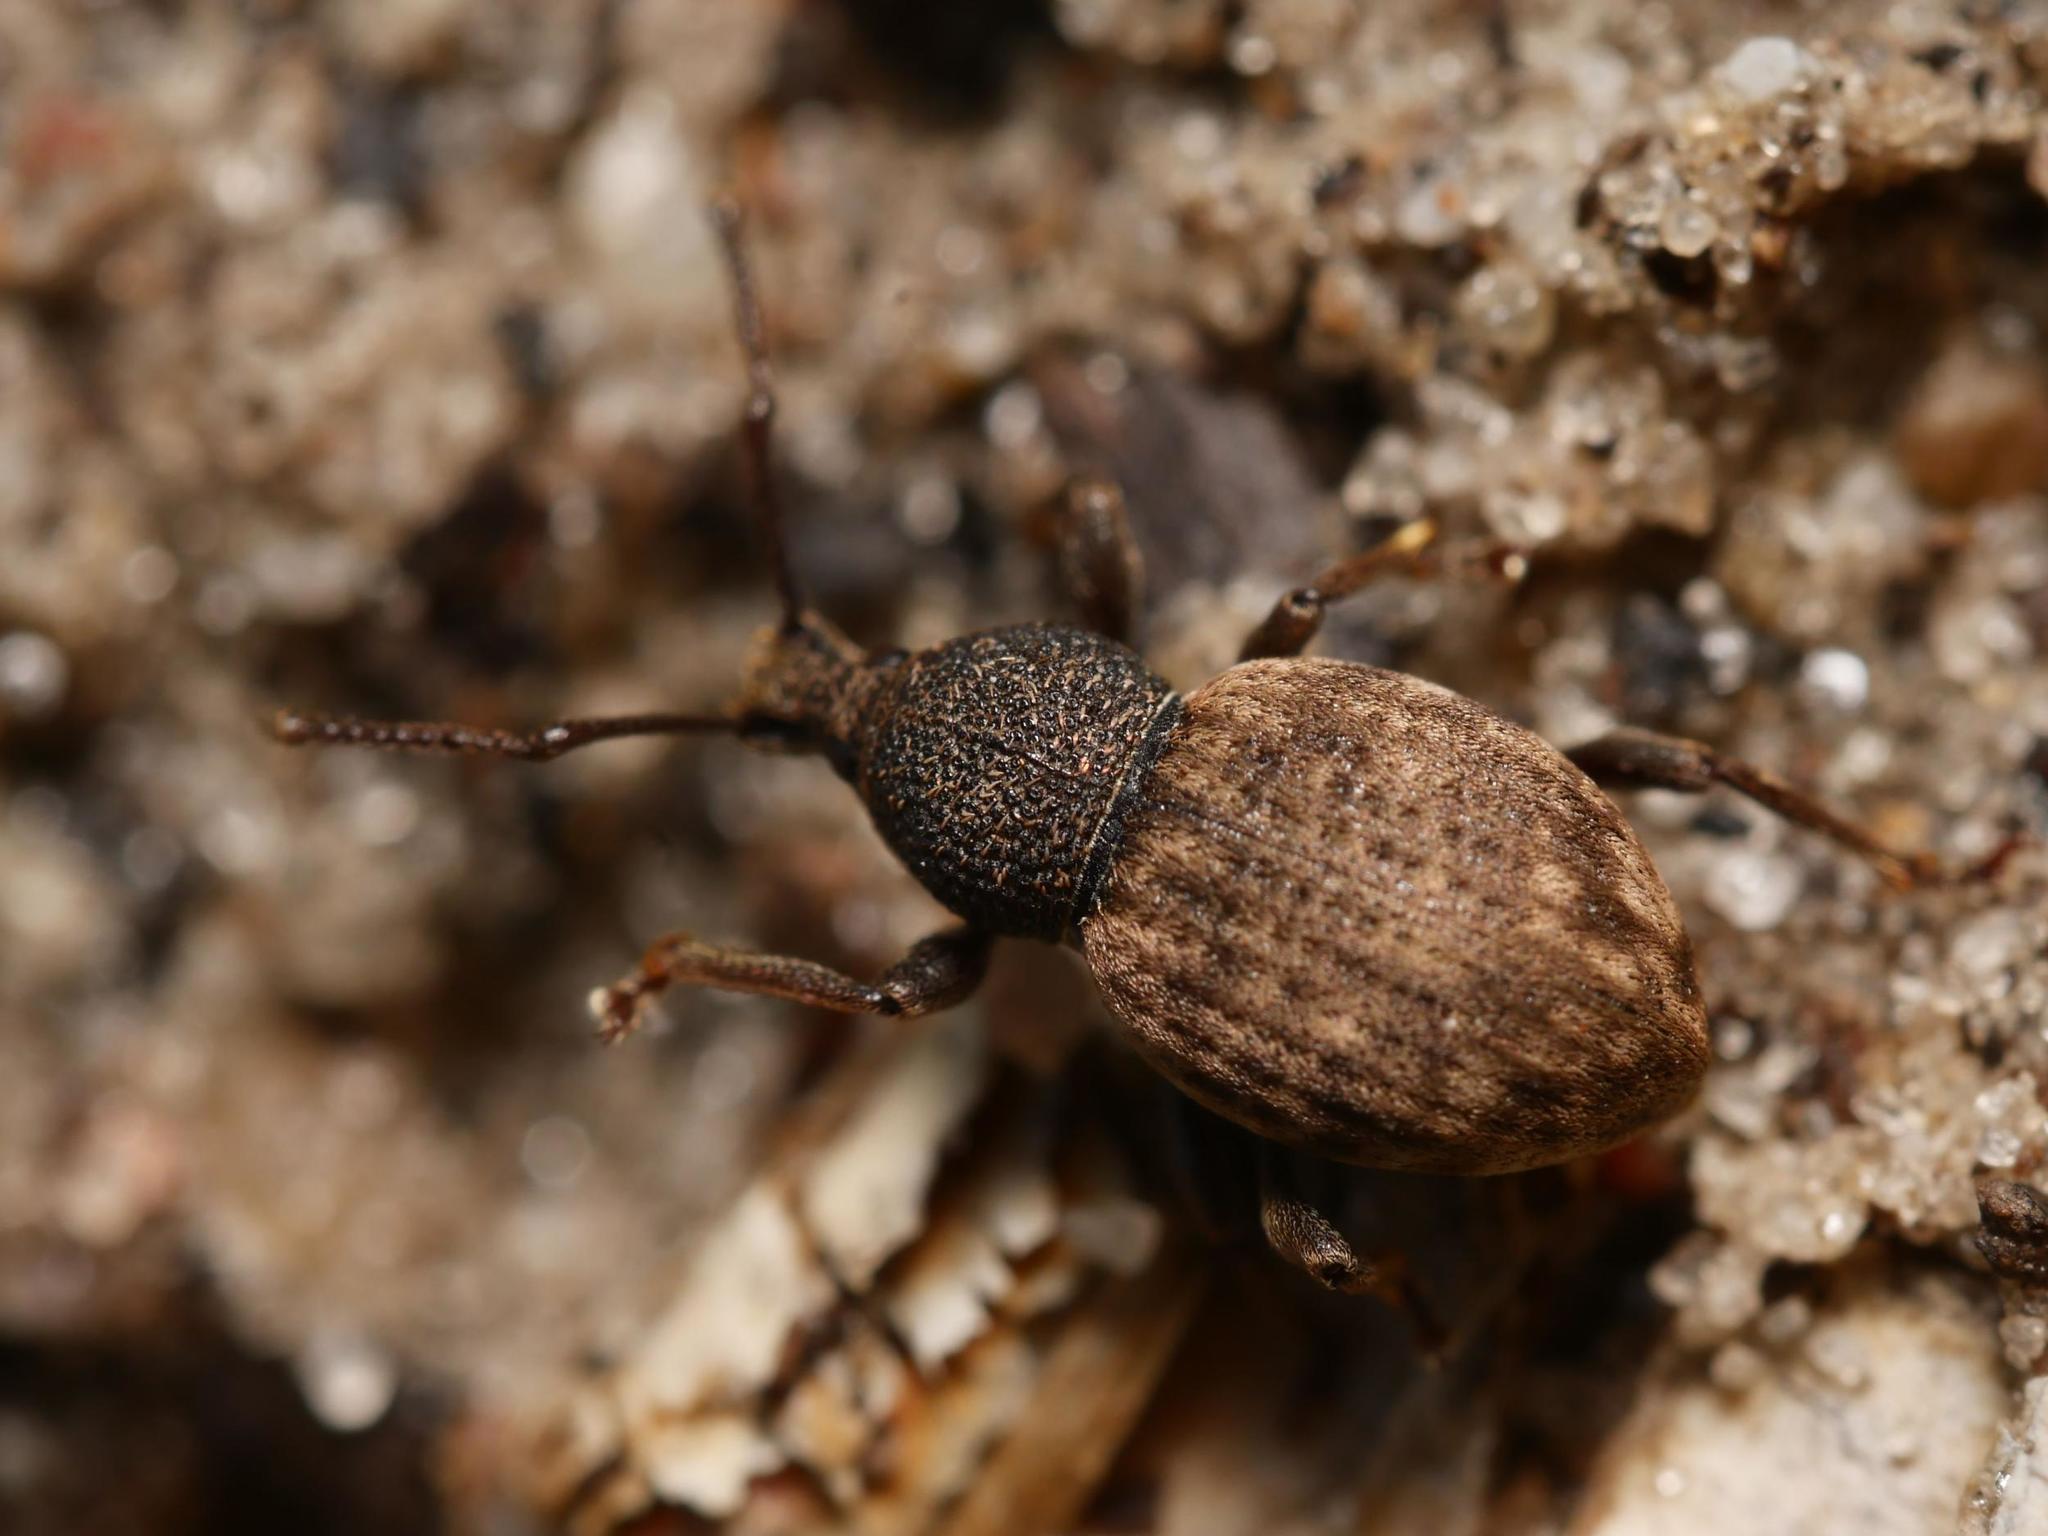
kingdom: Animalia
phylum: Arthropoda
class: Insecta
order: Coleoptera
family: Curculionidae
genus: Otiorhynchus
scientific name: Otiorhynchus raucus
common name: Weevil
